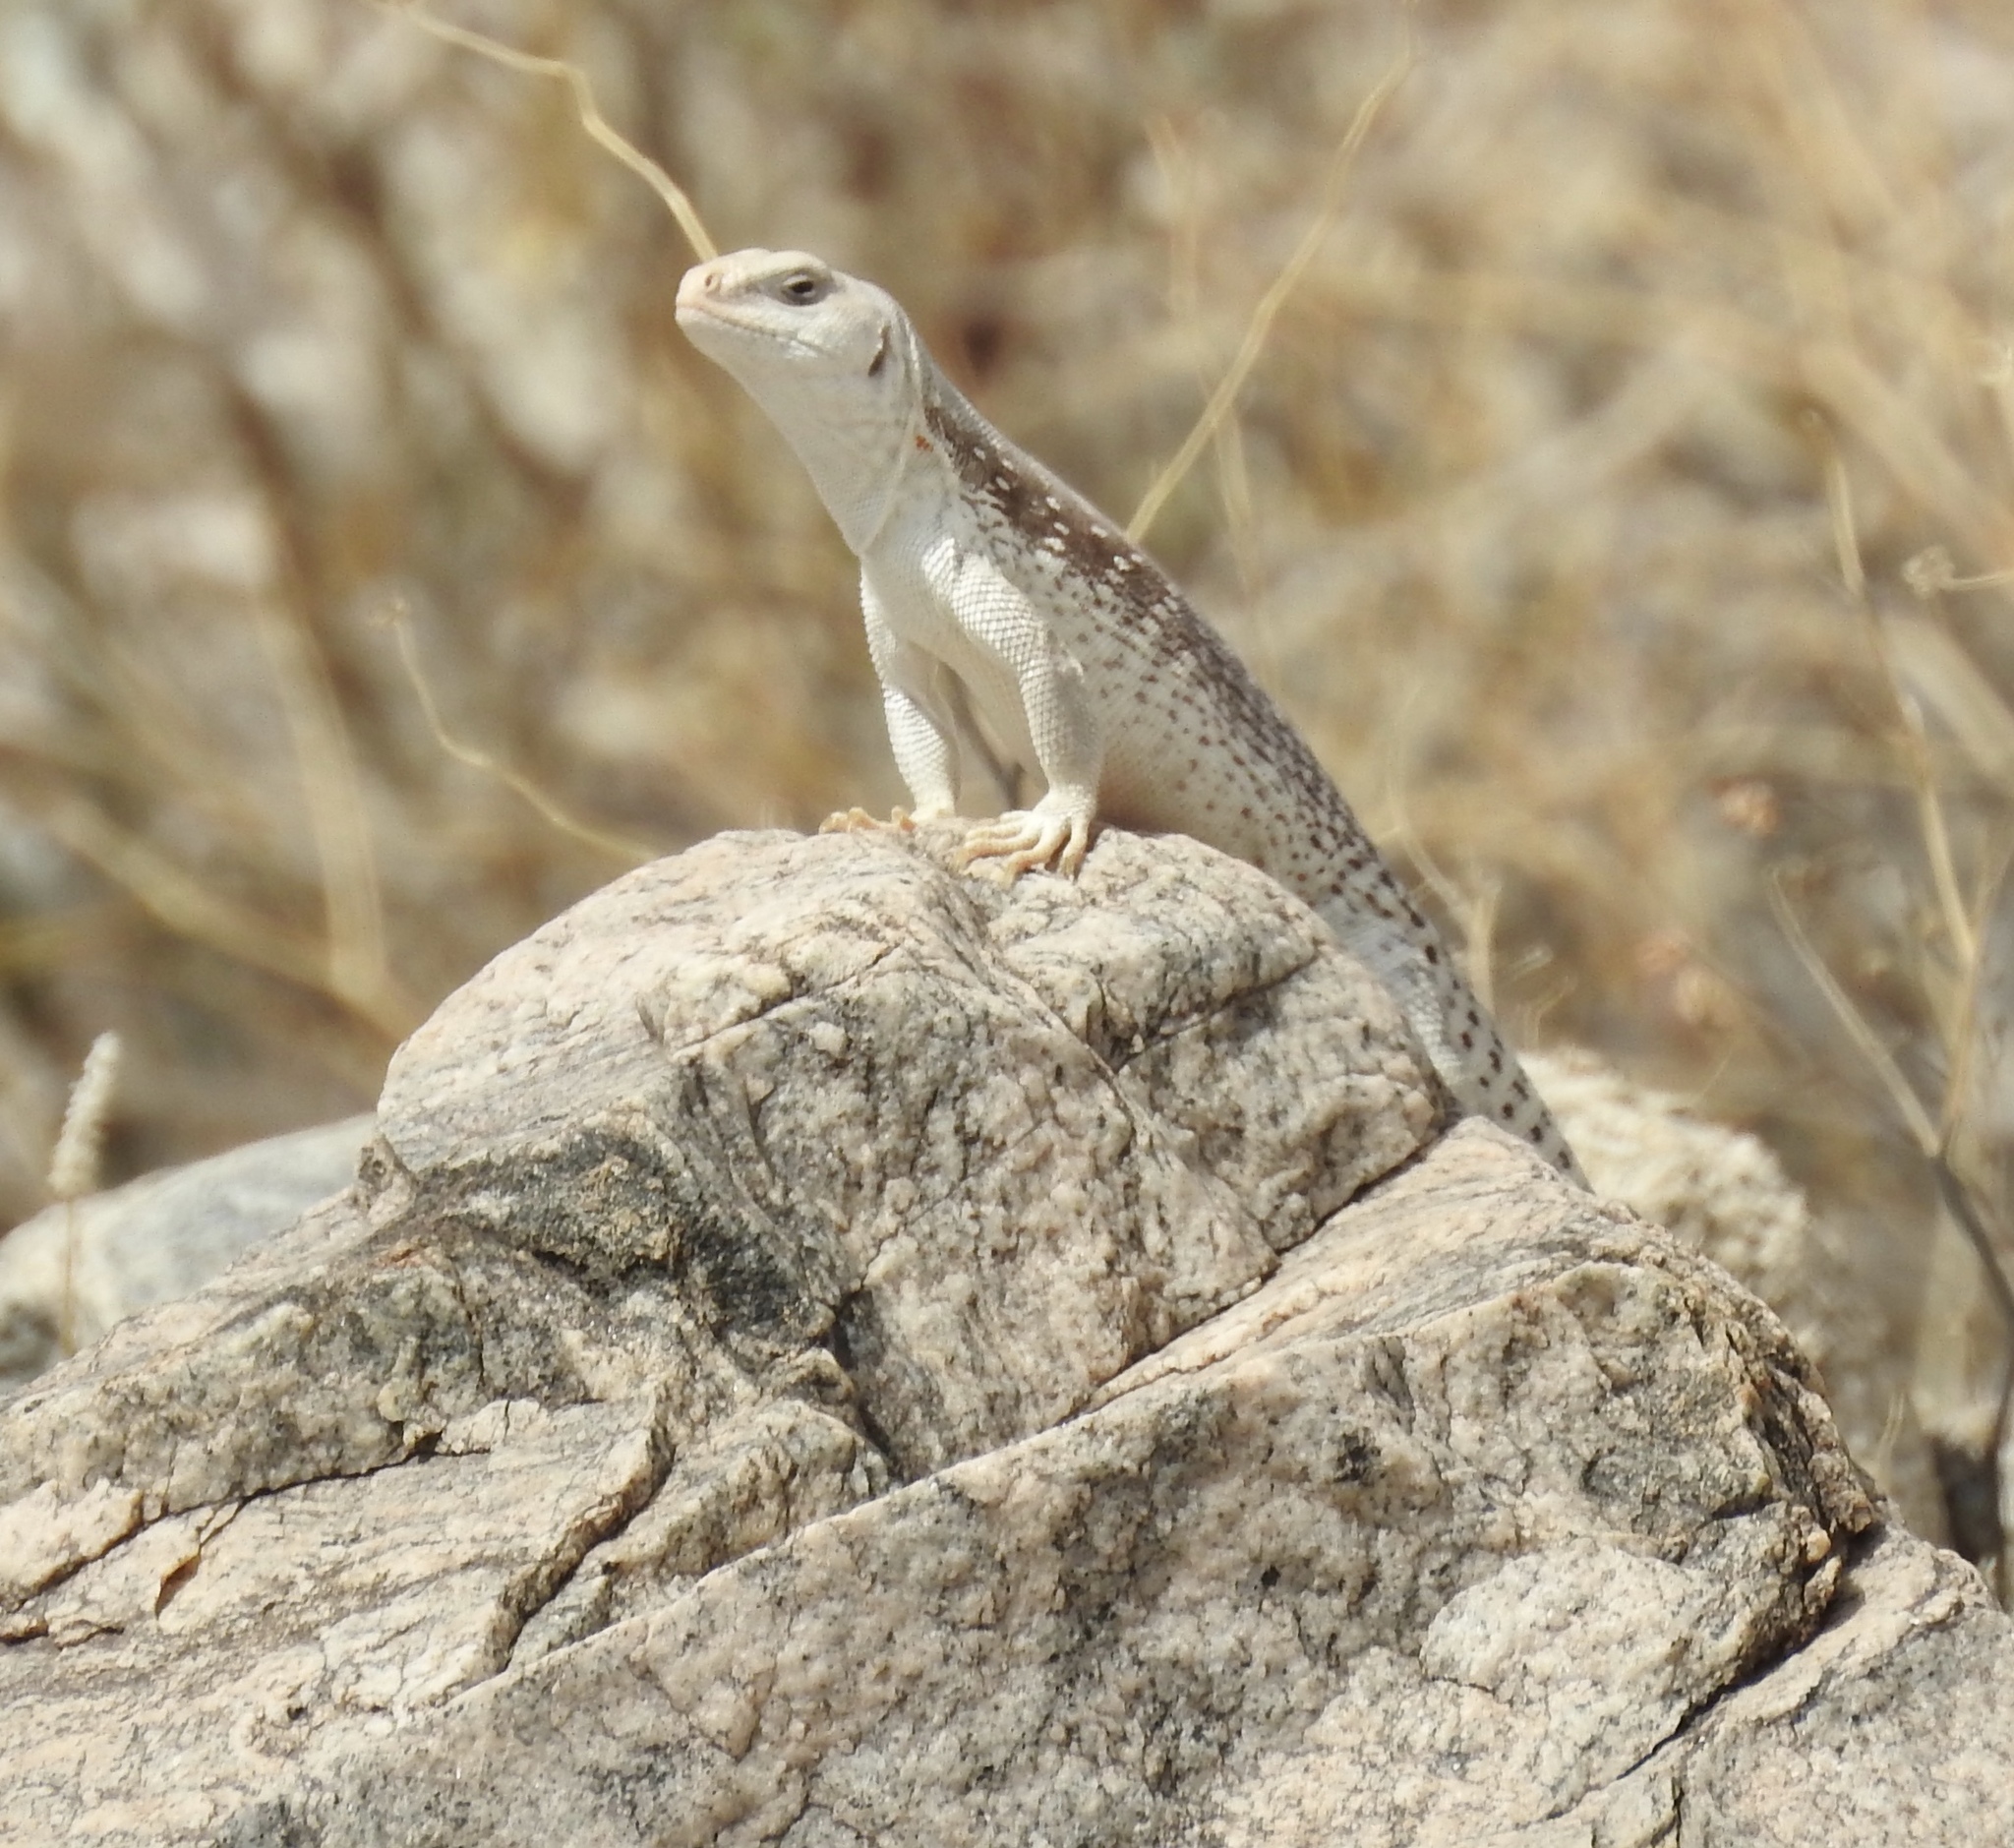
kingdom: Animalia
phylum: Chordata
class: Squamata
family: Iguanidae
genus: Dipsosaurus
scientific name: Dipsosaurus dorsalis
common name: Desert iguana
